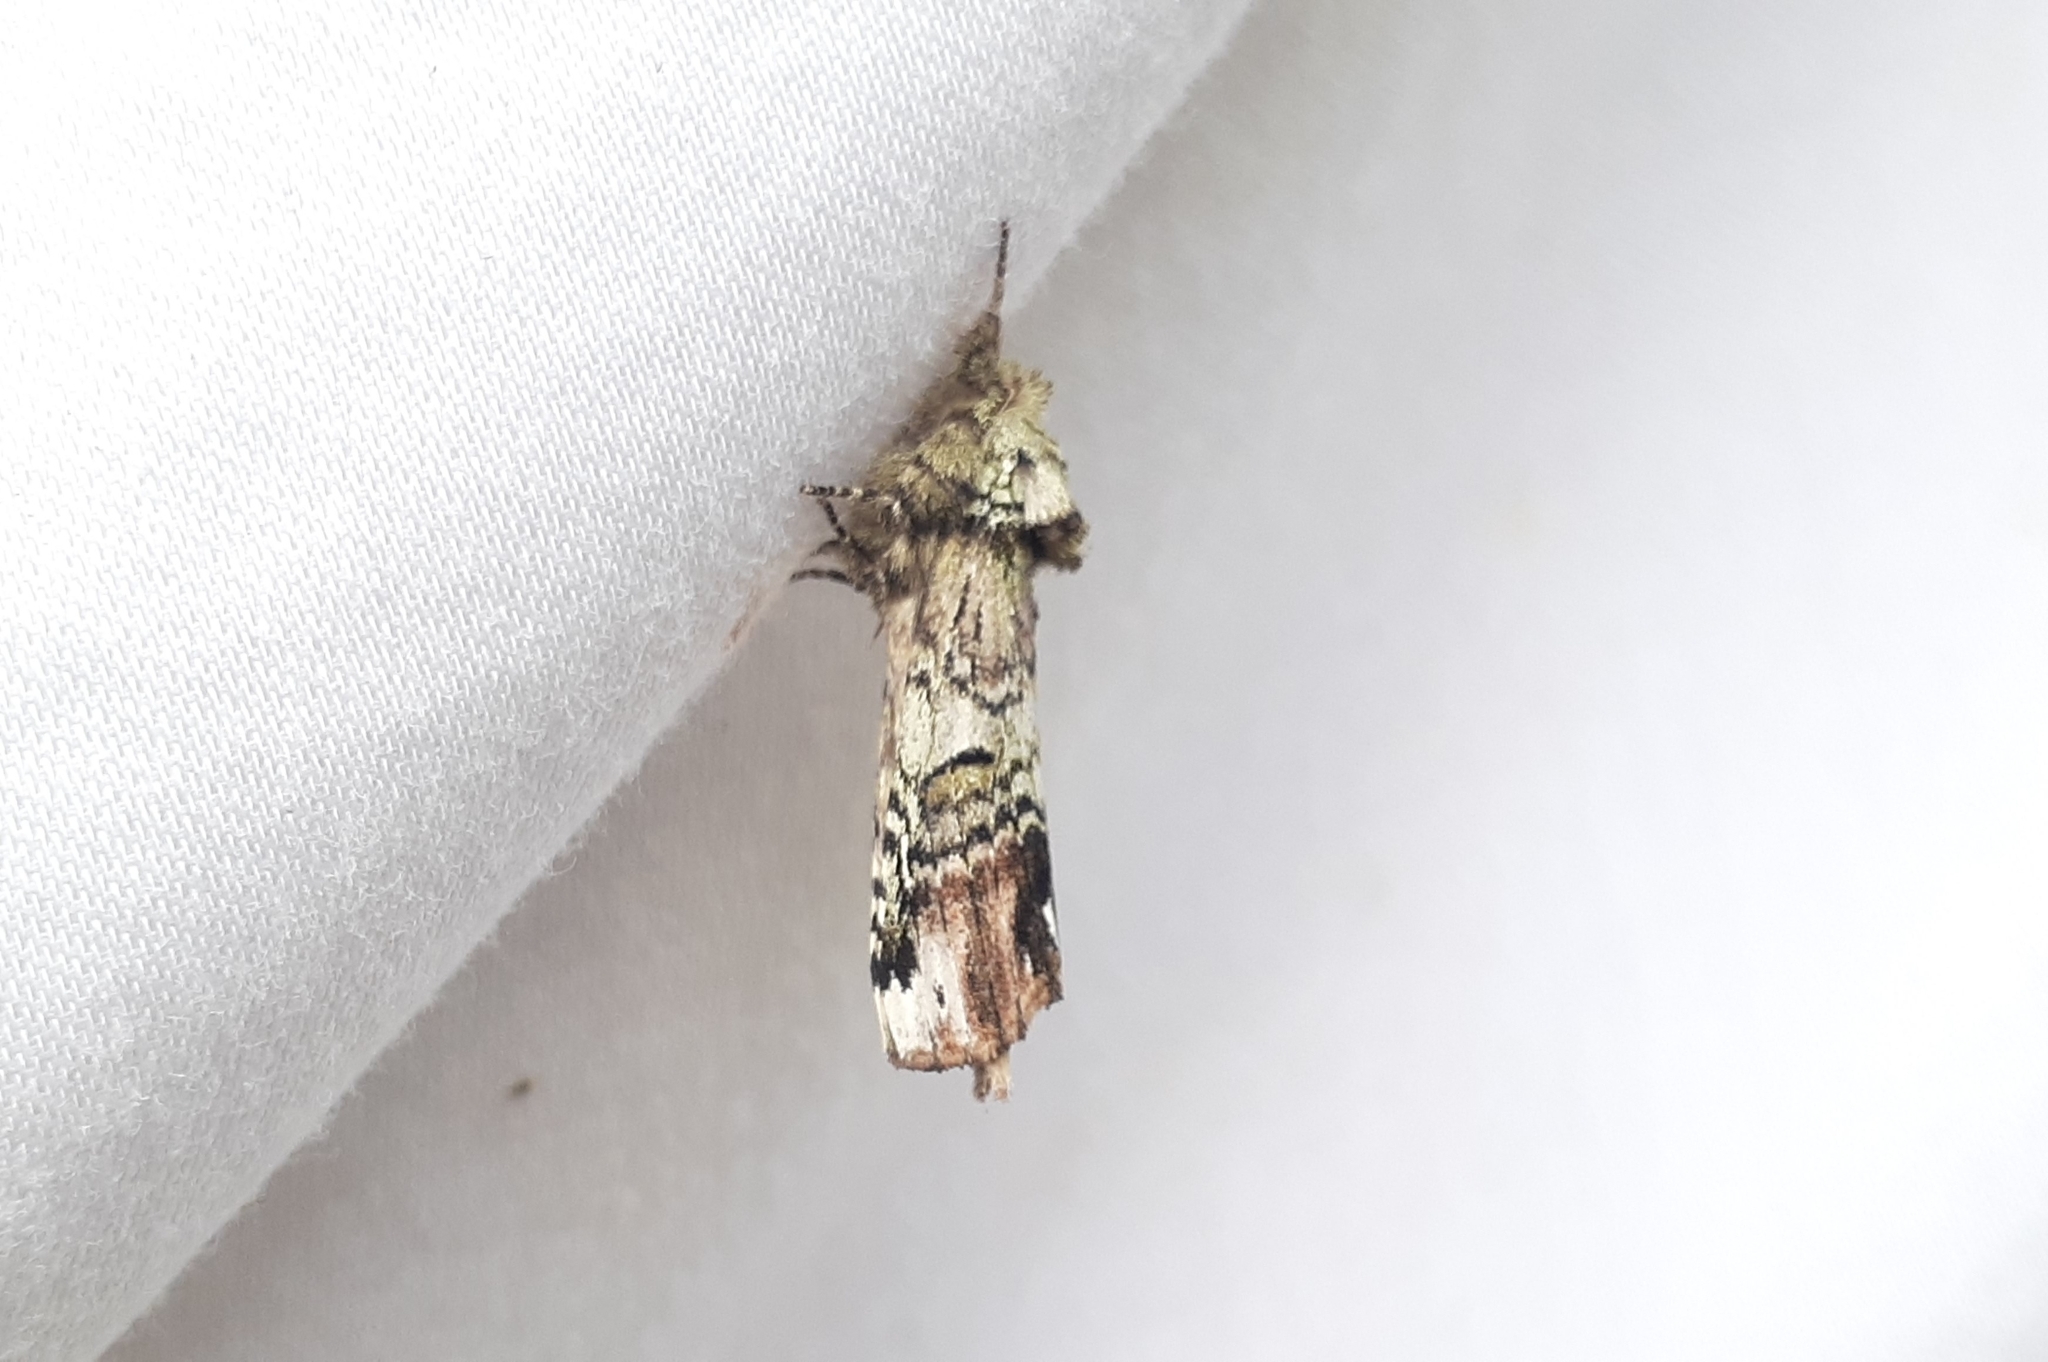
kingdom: Animalia
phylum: Arthropoda
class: Insecta
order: Lepidoptera
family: Notodontidae
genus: Schizura
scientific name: Schizura
